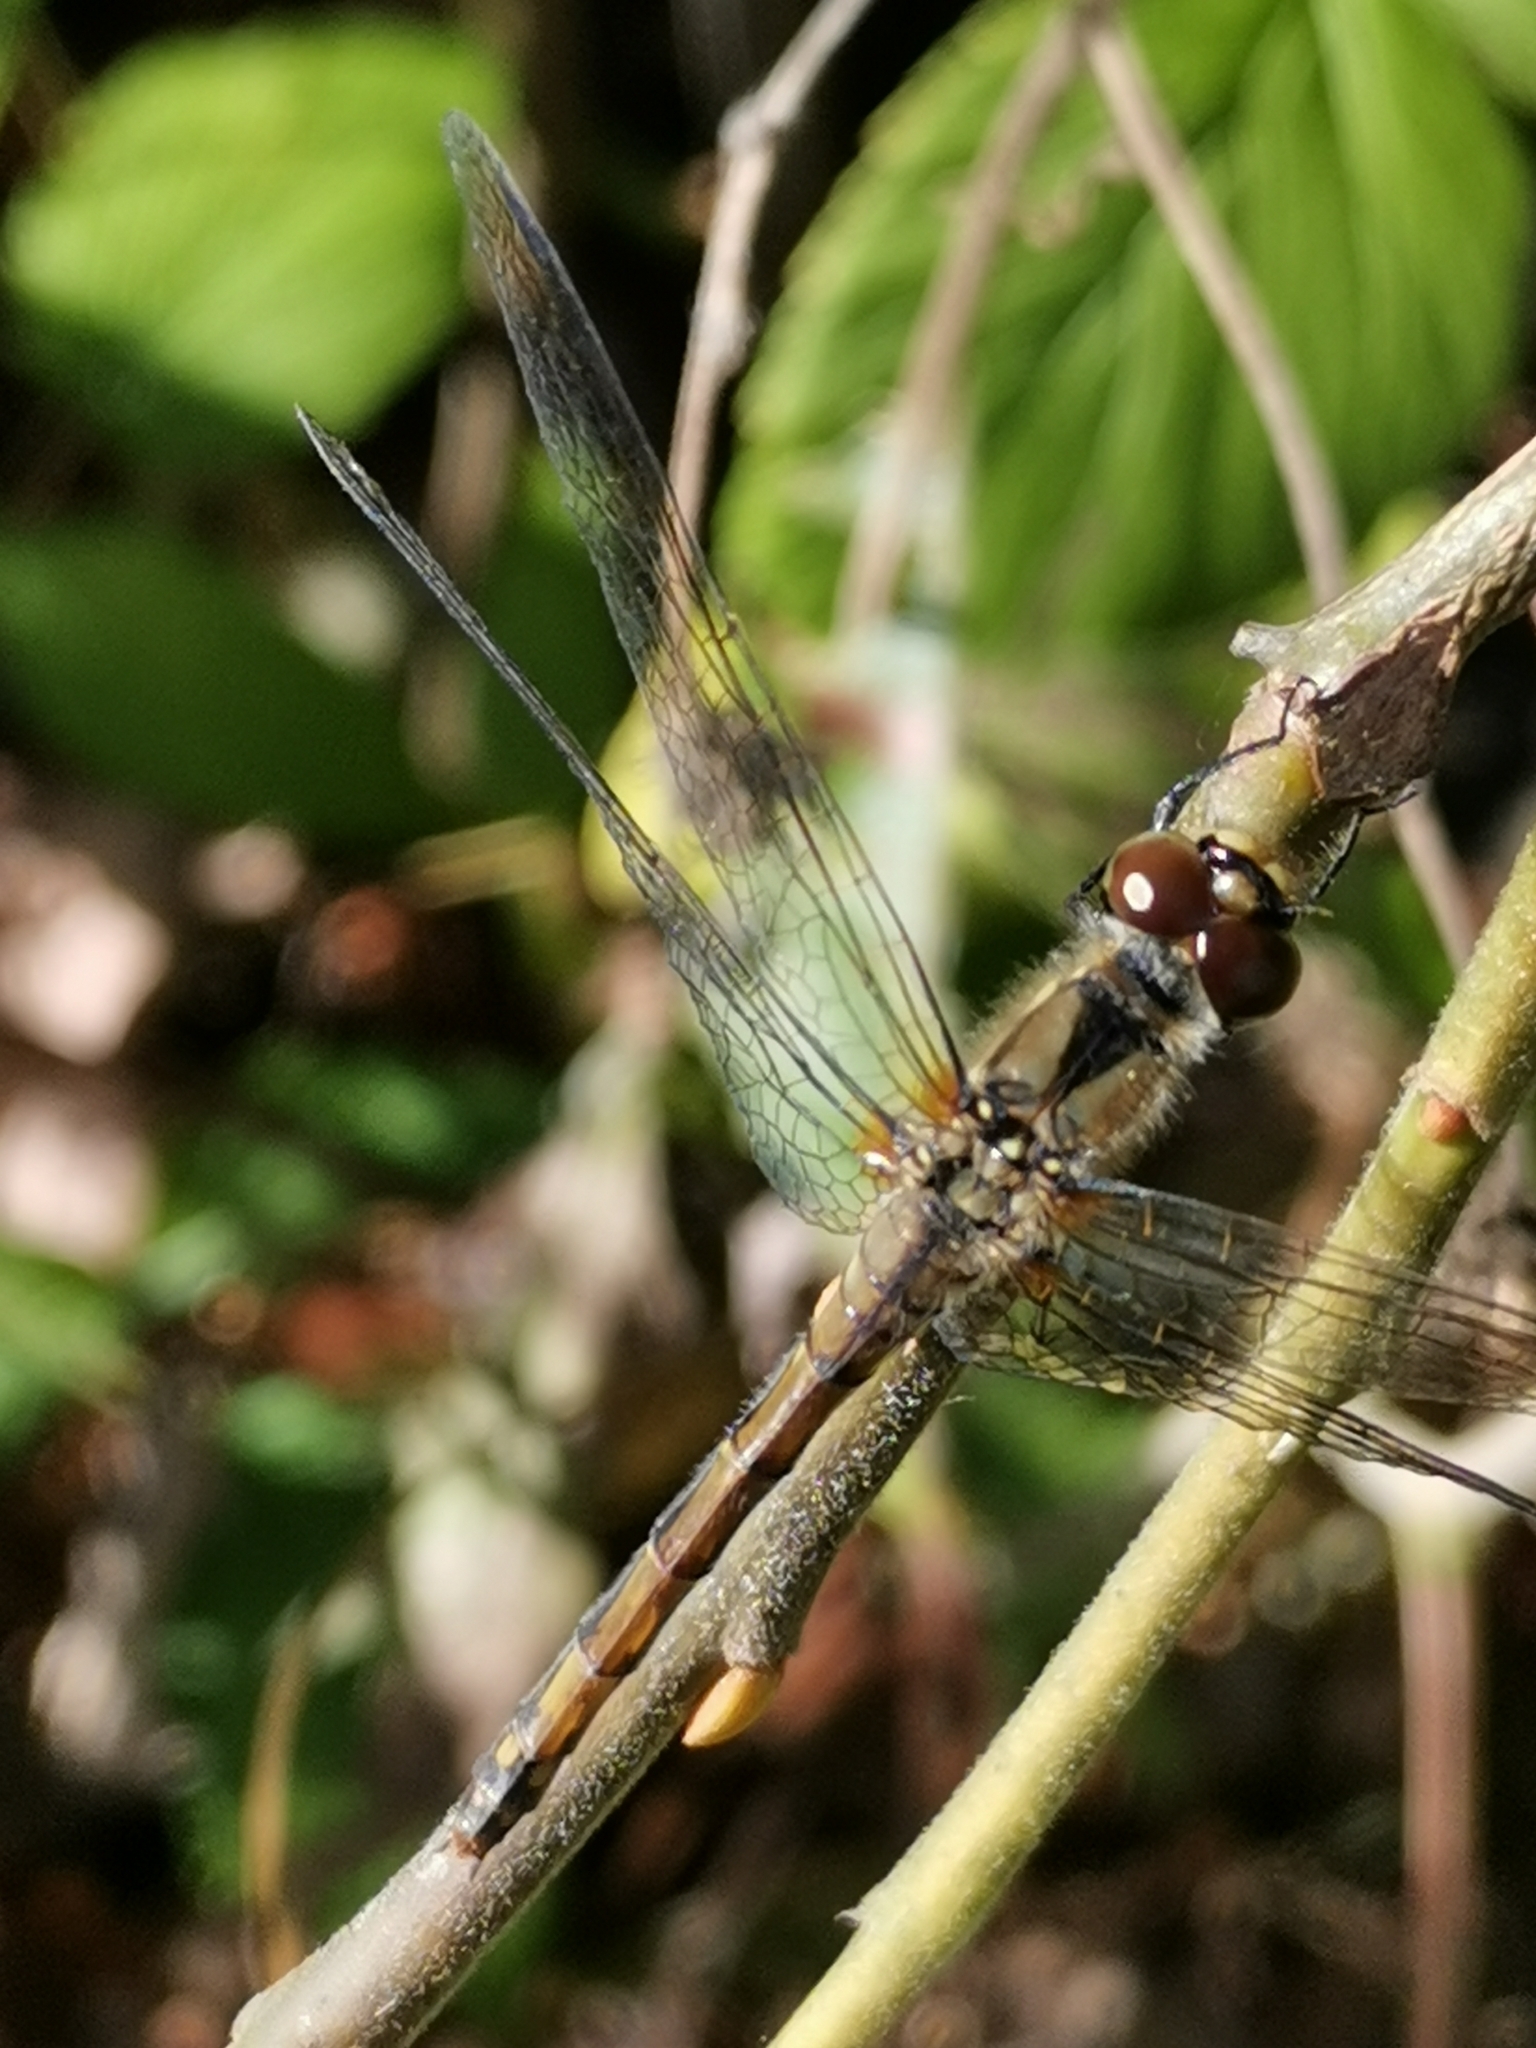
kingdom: Animalia
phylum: Arthropoda
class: Insecta
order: Odonata
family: Libellulidae
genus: Sympetrum
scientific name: Sympetrum danae
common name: Black darter
